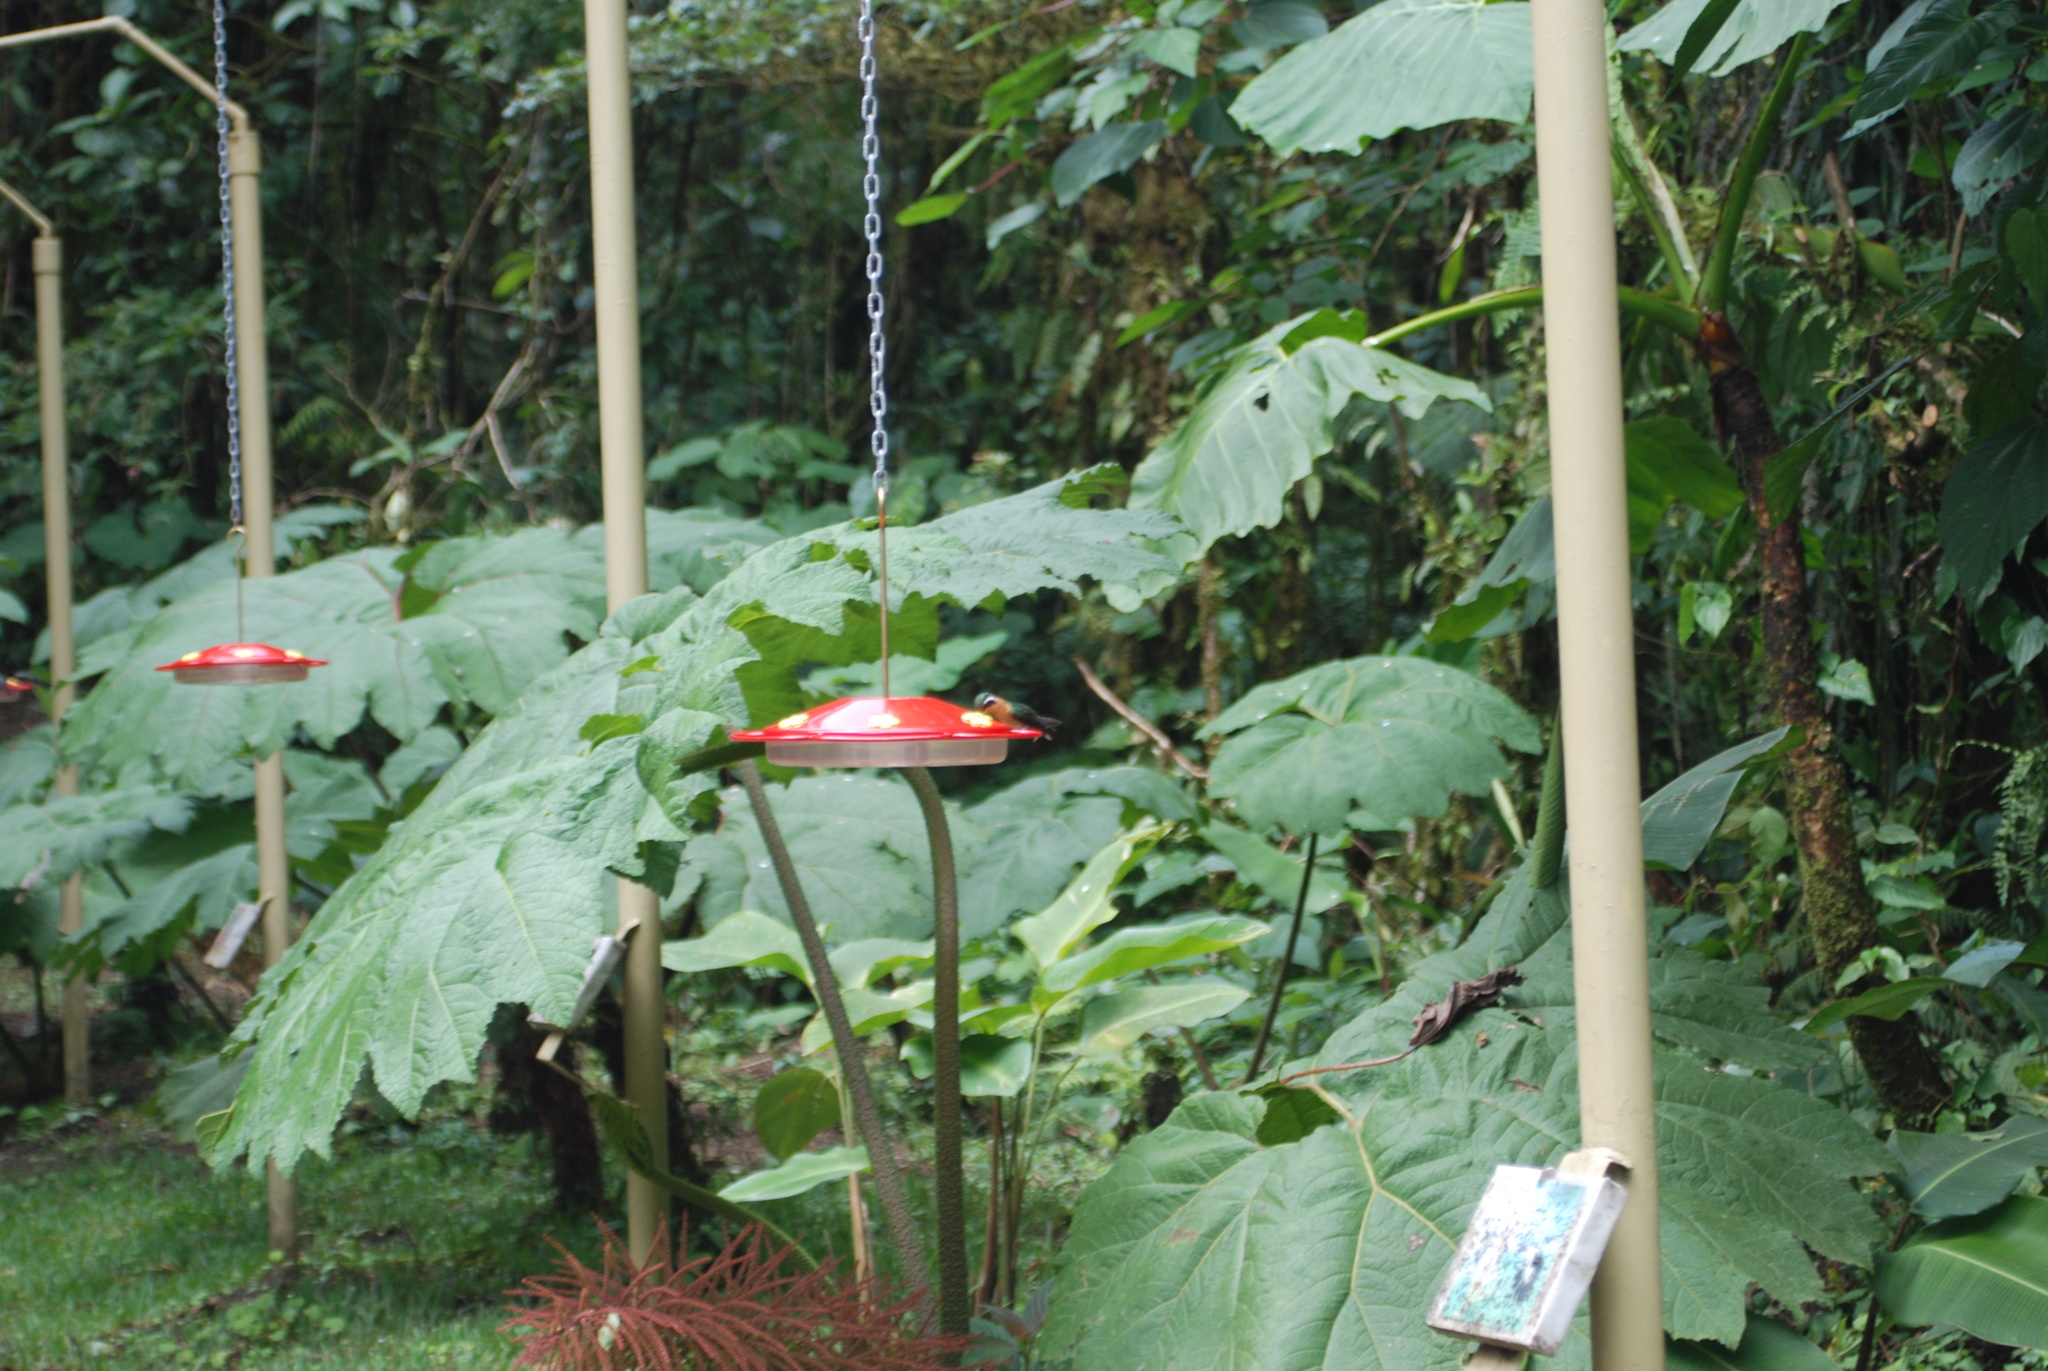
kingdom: Animalia
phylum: Chordata
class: Aves
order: Apodiformes
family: Trochilidae
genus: Lampornis
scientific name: Lampornis calolaemus
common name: Purple-throated mountain-gem
